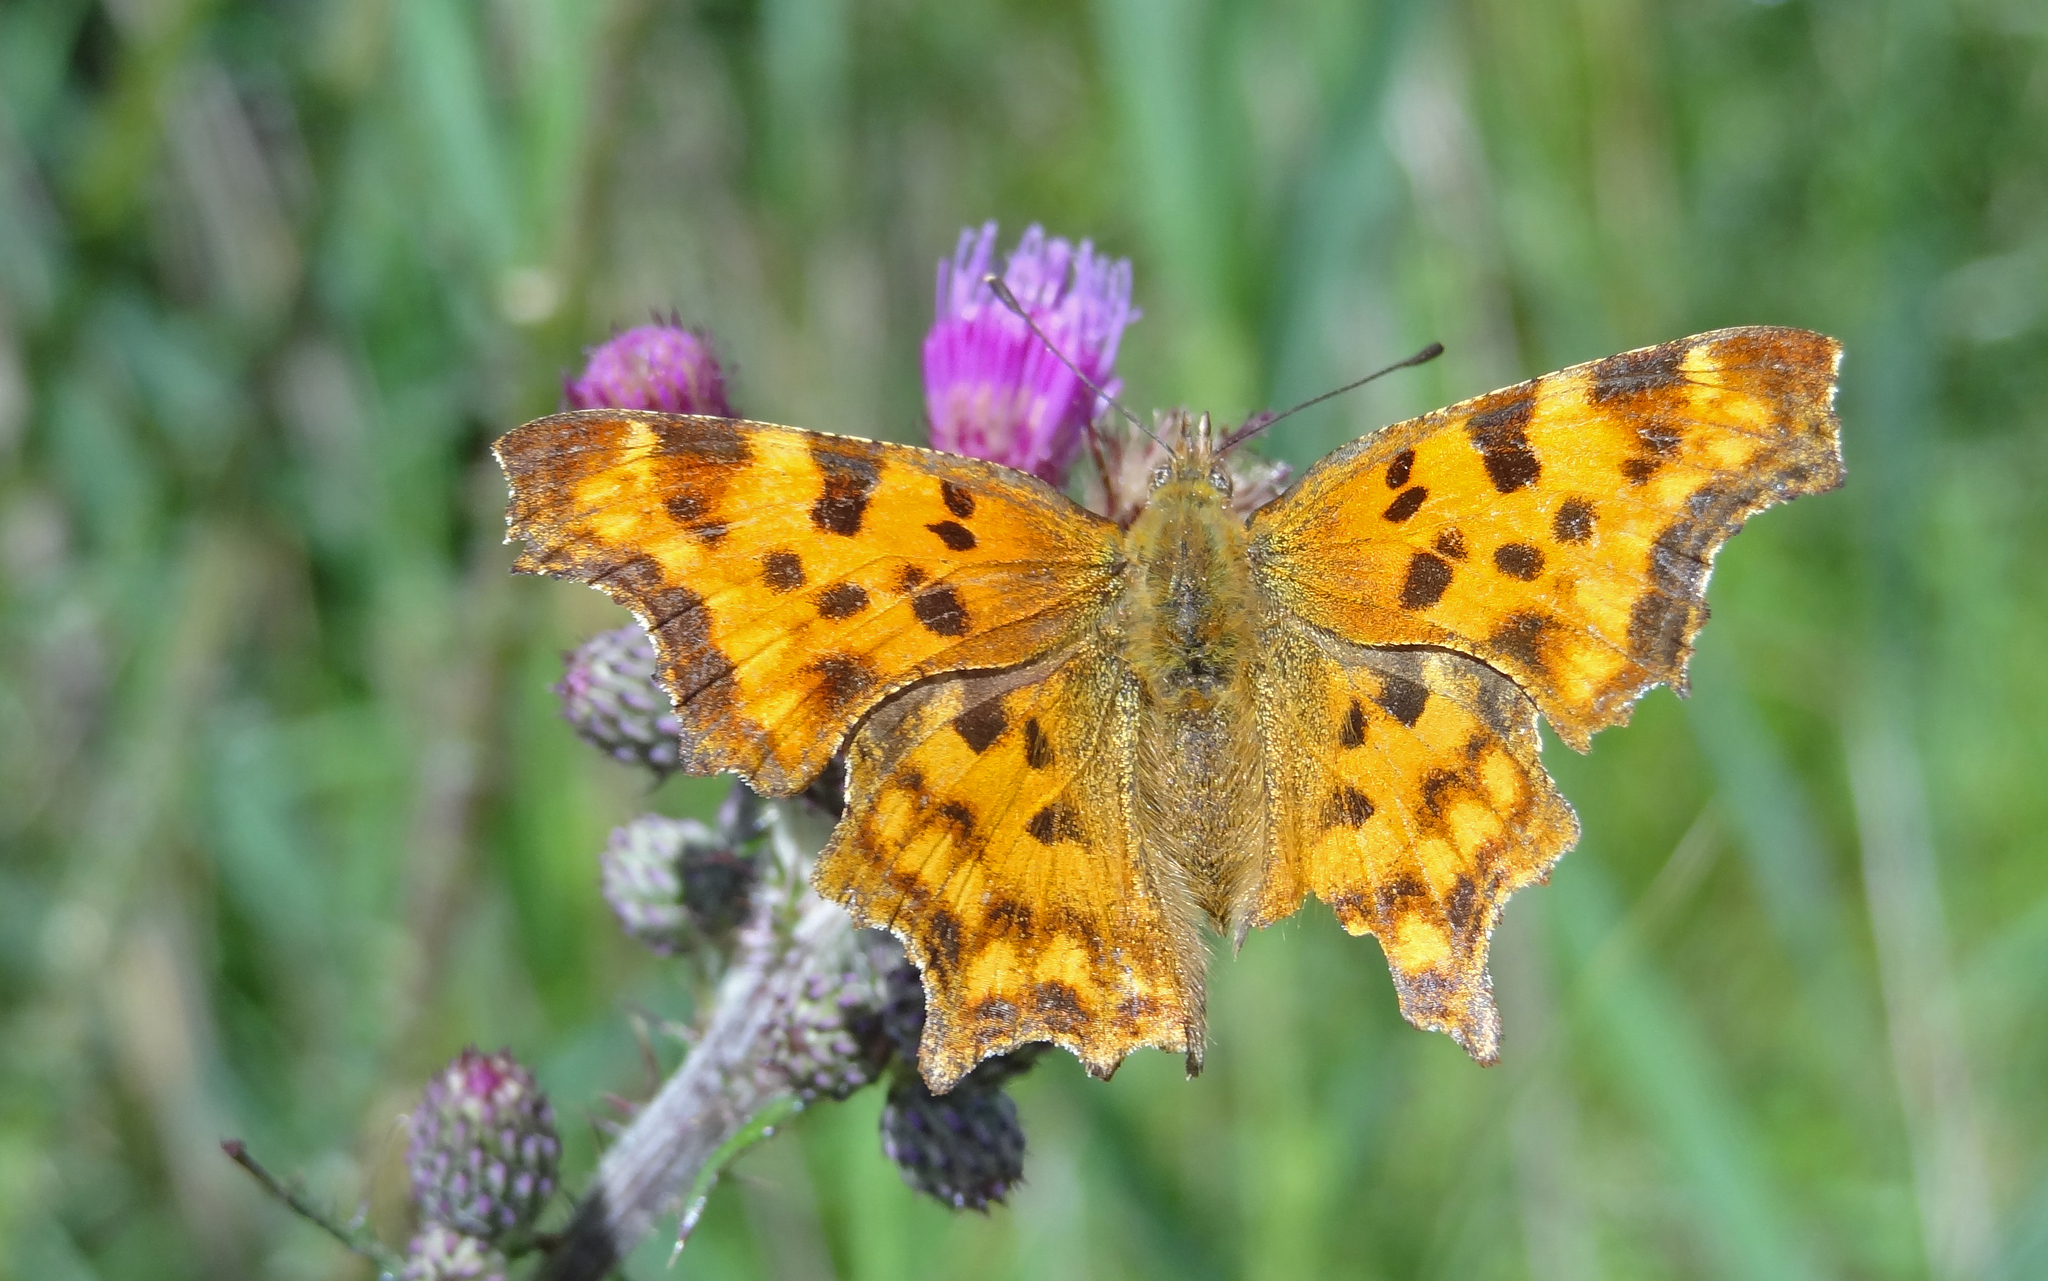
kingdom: Animalia
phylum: Arthropoda
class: Insecta
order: Lepidoptera
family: Nymphalidae
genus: Polygonia
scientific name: Polygonia c-album
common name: Comma
